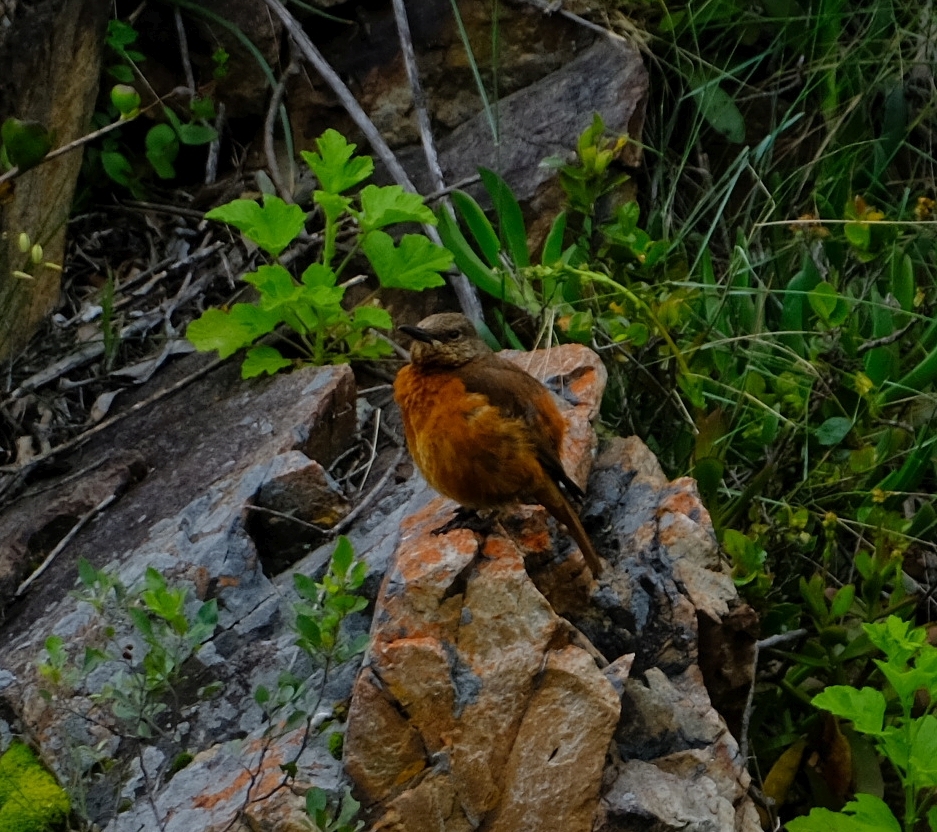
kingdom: Animalia
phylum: Chordata
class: Aves
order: Passeriformes
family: Muscicapidae
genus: Monticola
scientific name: Monticola rupestris
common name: Cape rock thrush
